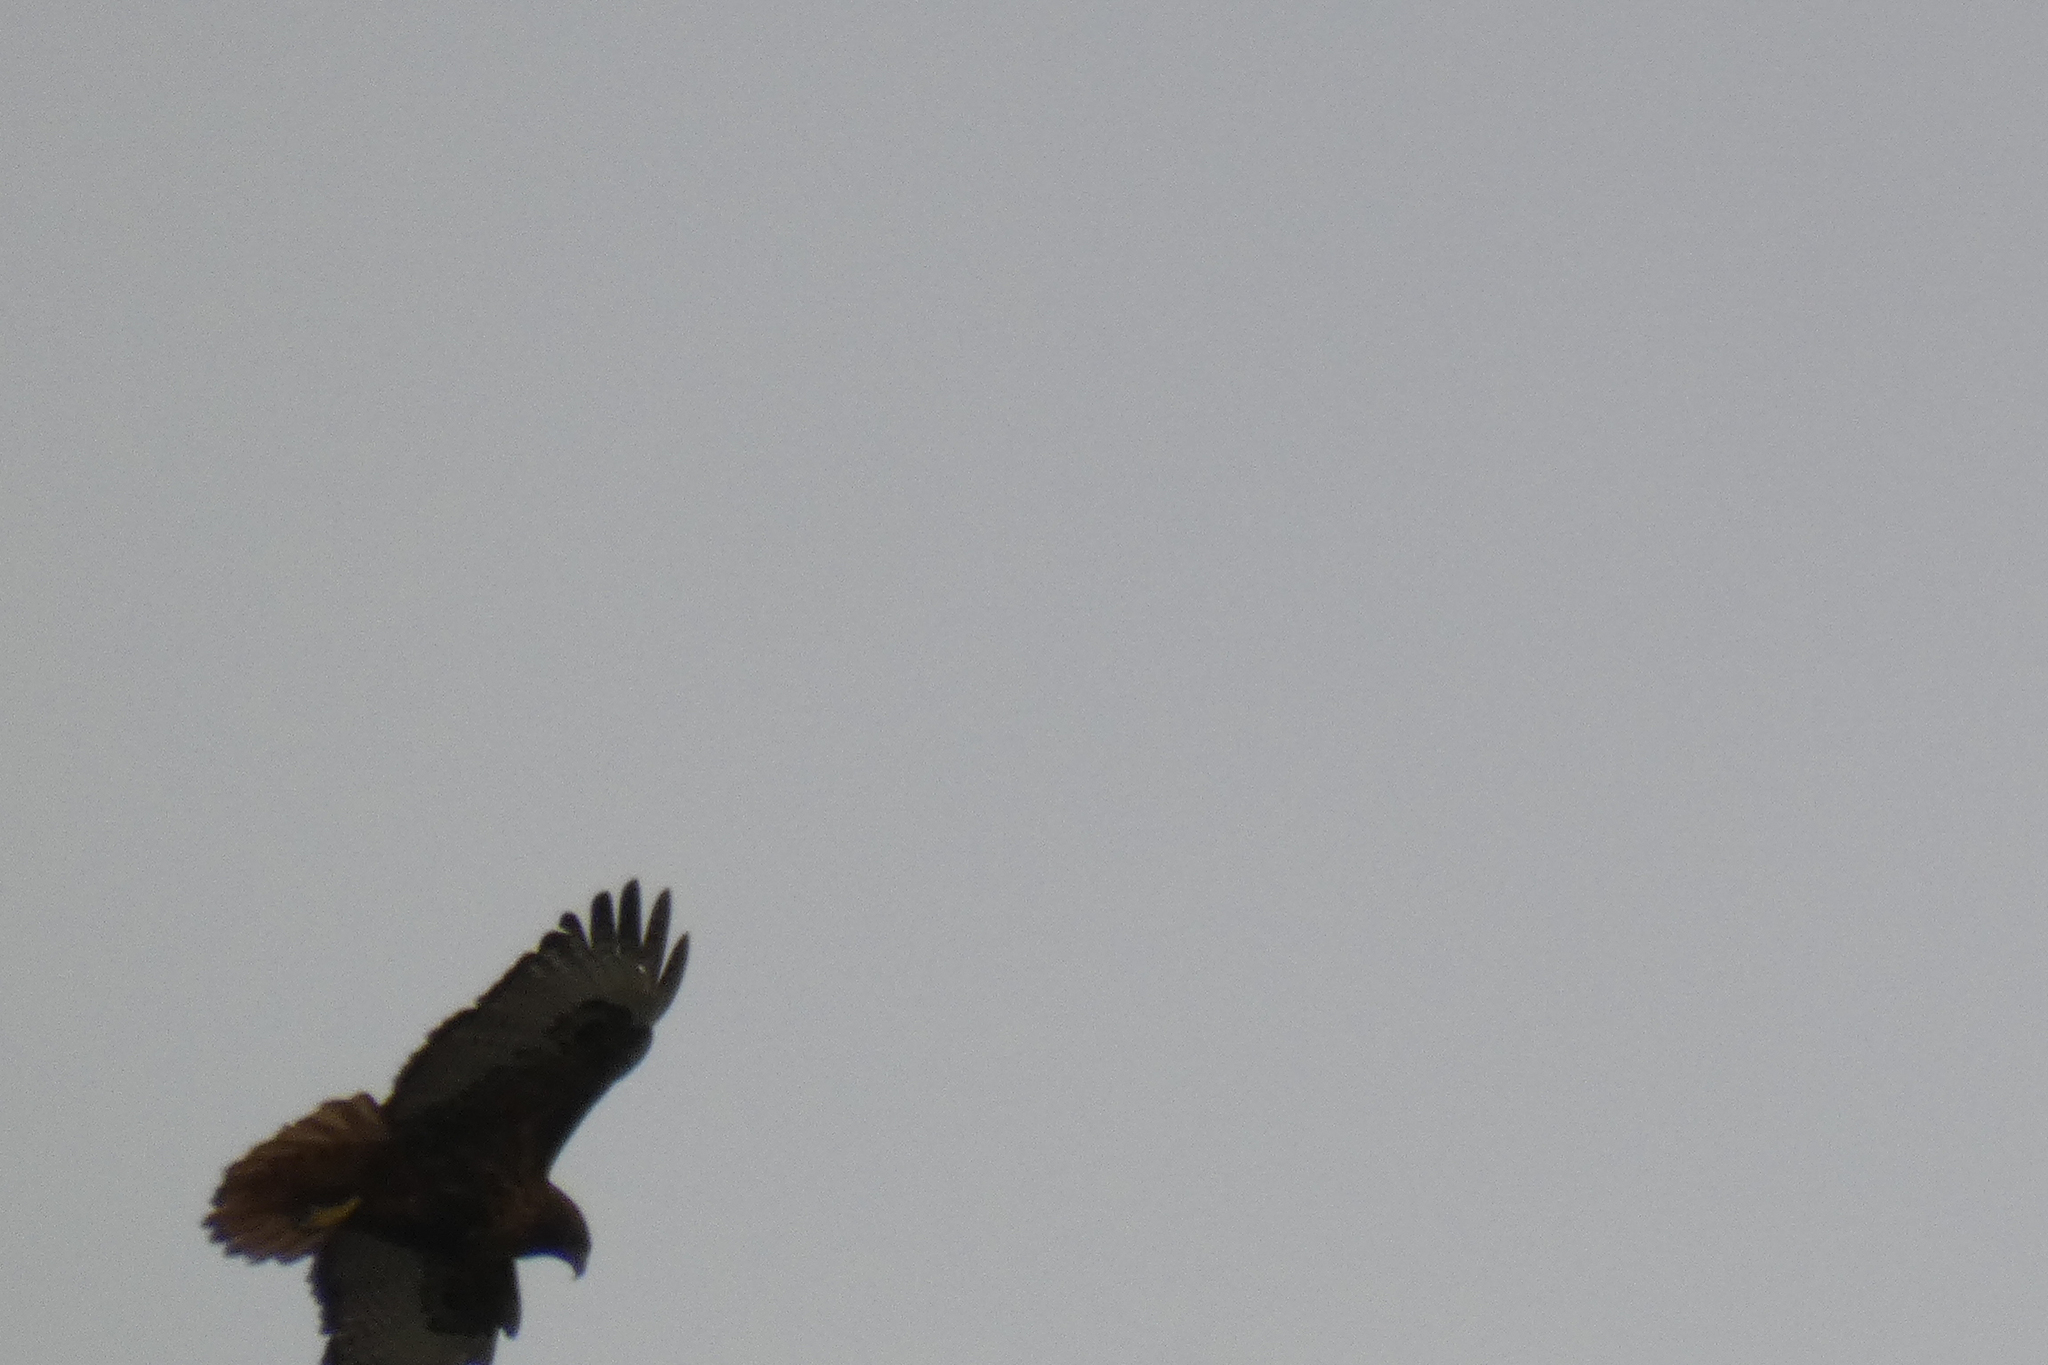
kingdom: Animalia
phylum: Chordata
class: Aves
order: Accipitriformes
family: Accipitridae
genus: Buteo
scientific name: Buteo jamaicensis
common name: Red-tailed hawk
